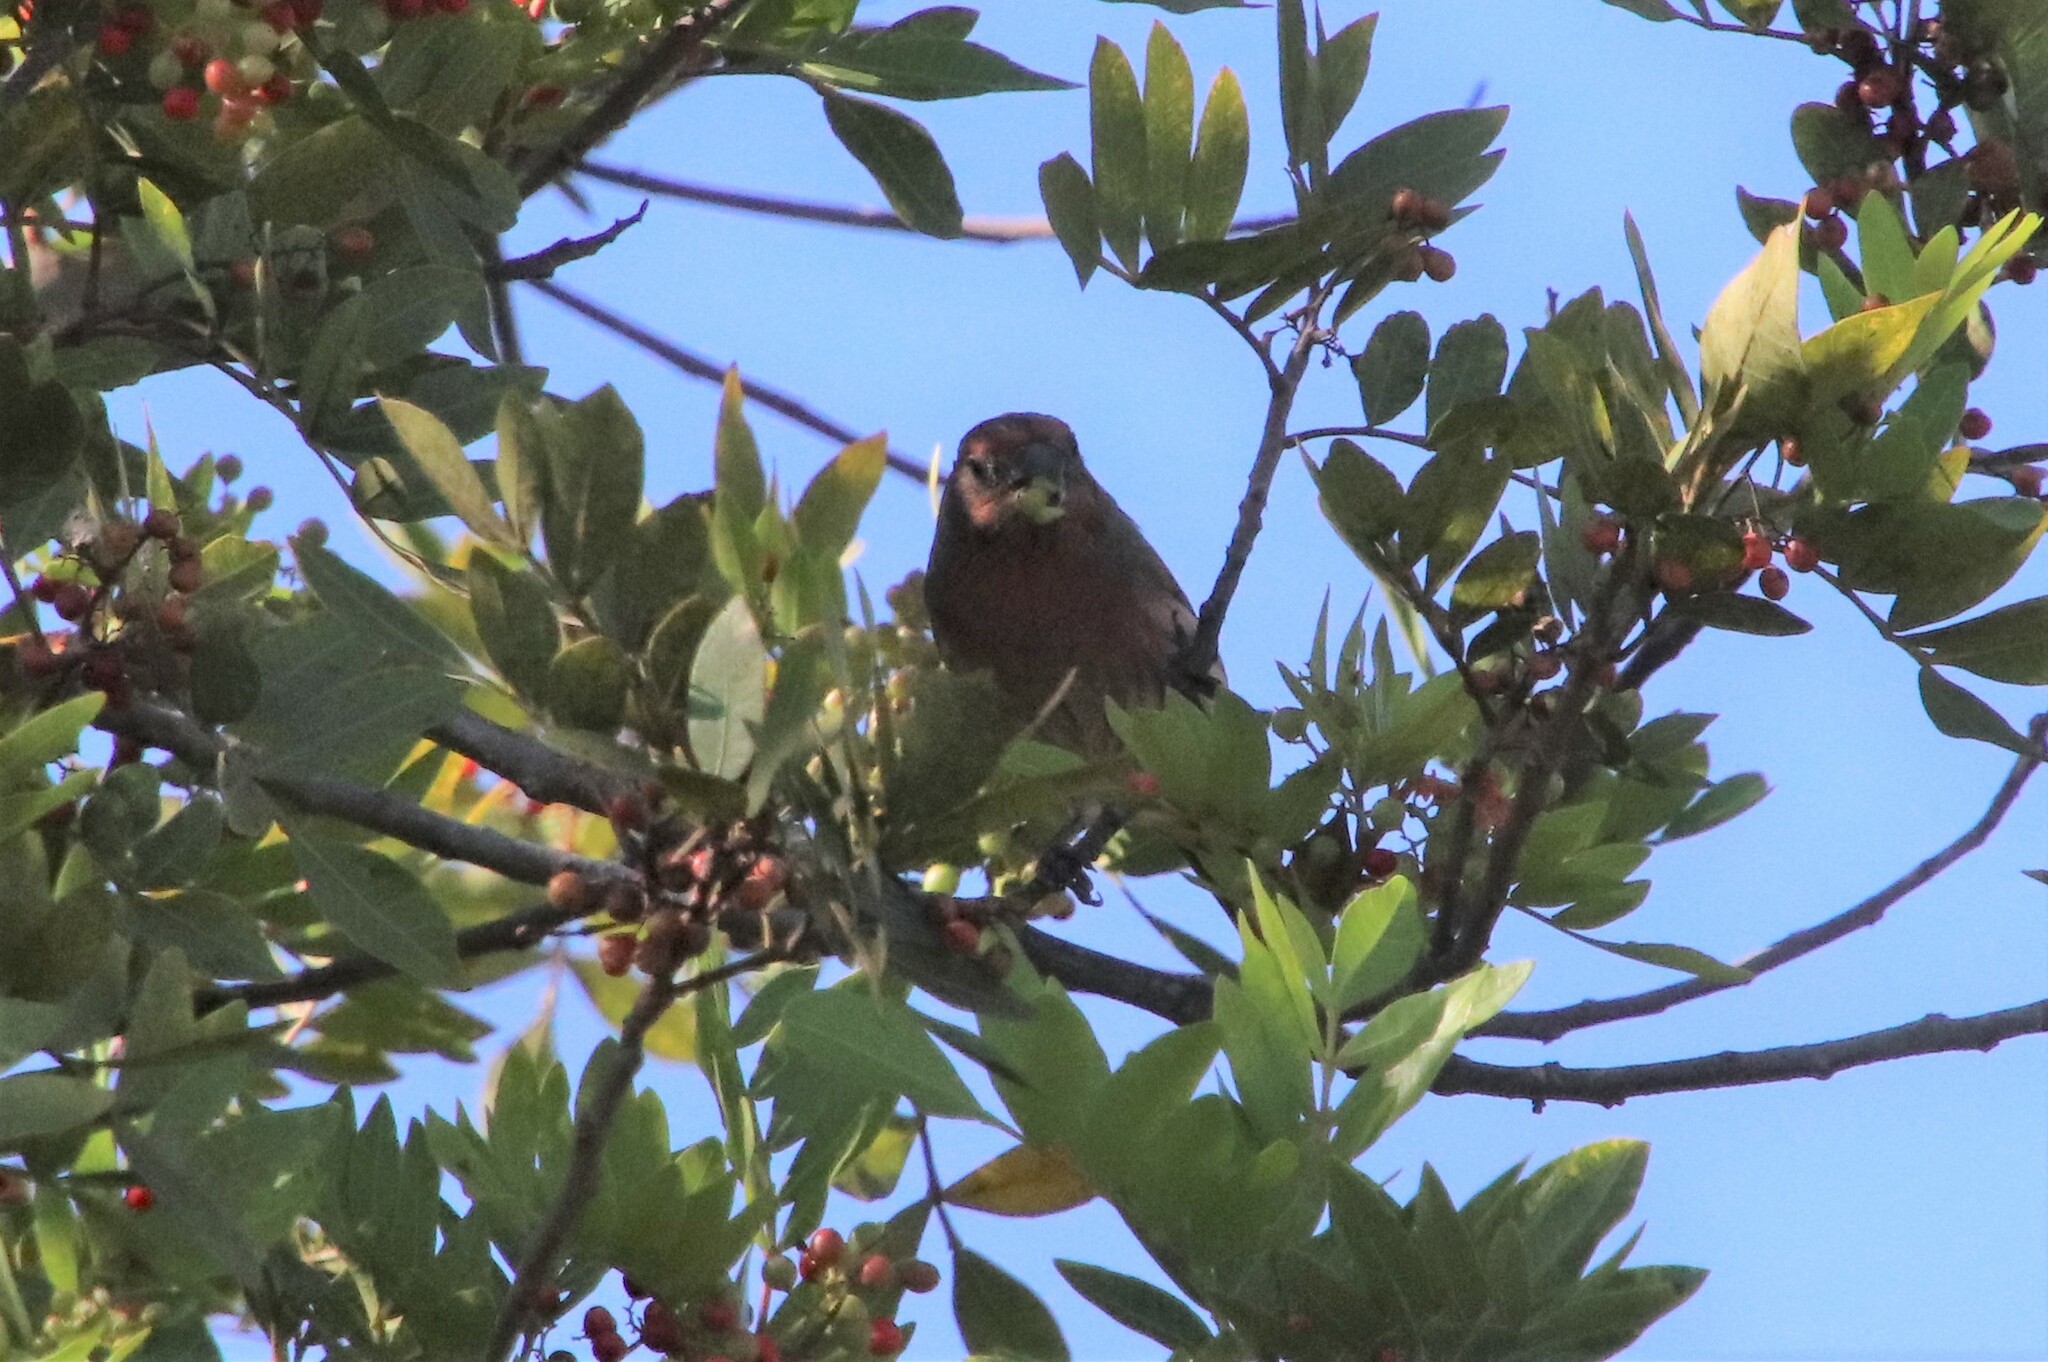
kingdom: Animalia
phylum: Chordata
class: Aves
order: Passeriformes
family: Fringillidae
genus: Haemorhous
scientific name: Haemorhous mexicanus
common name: House finch
